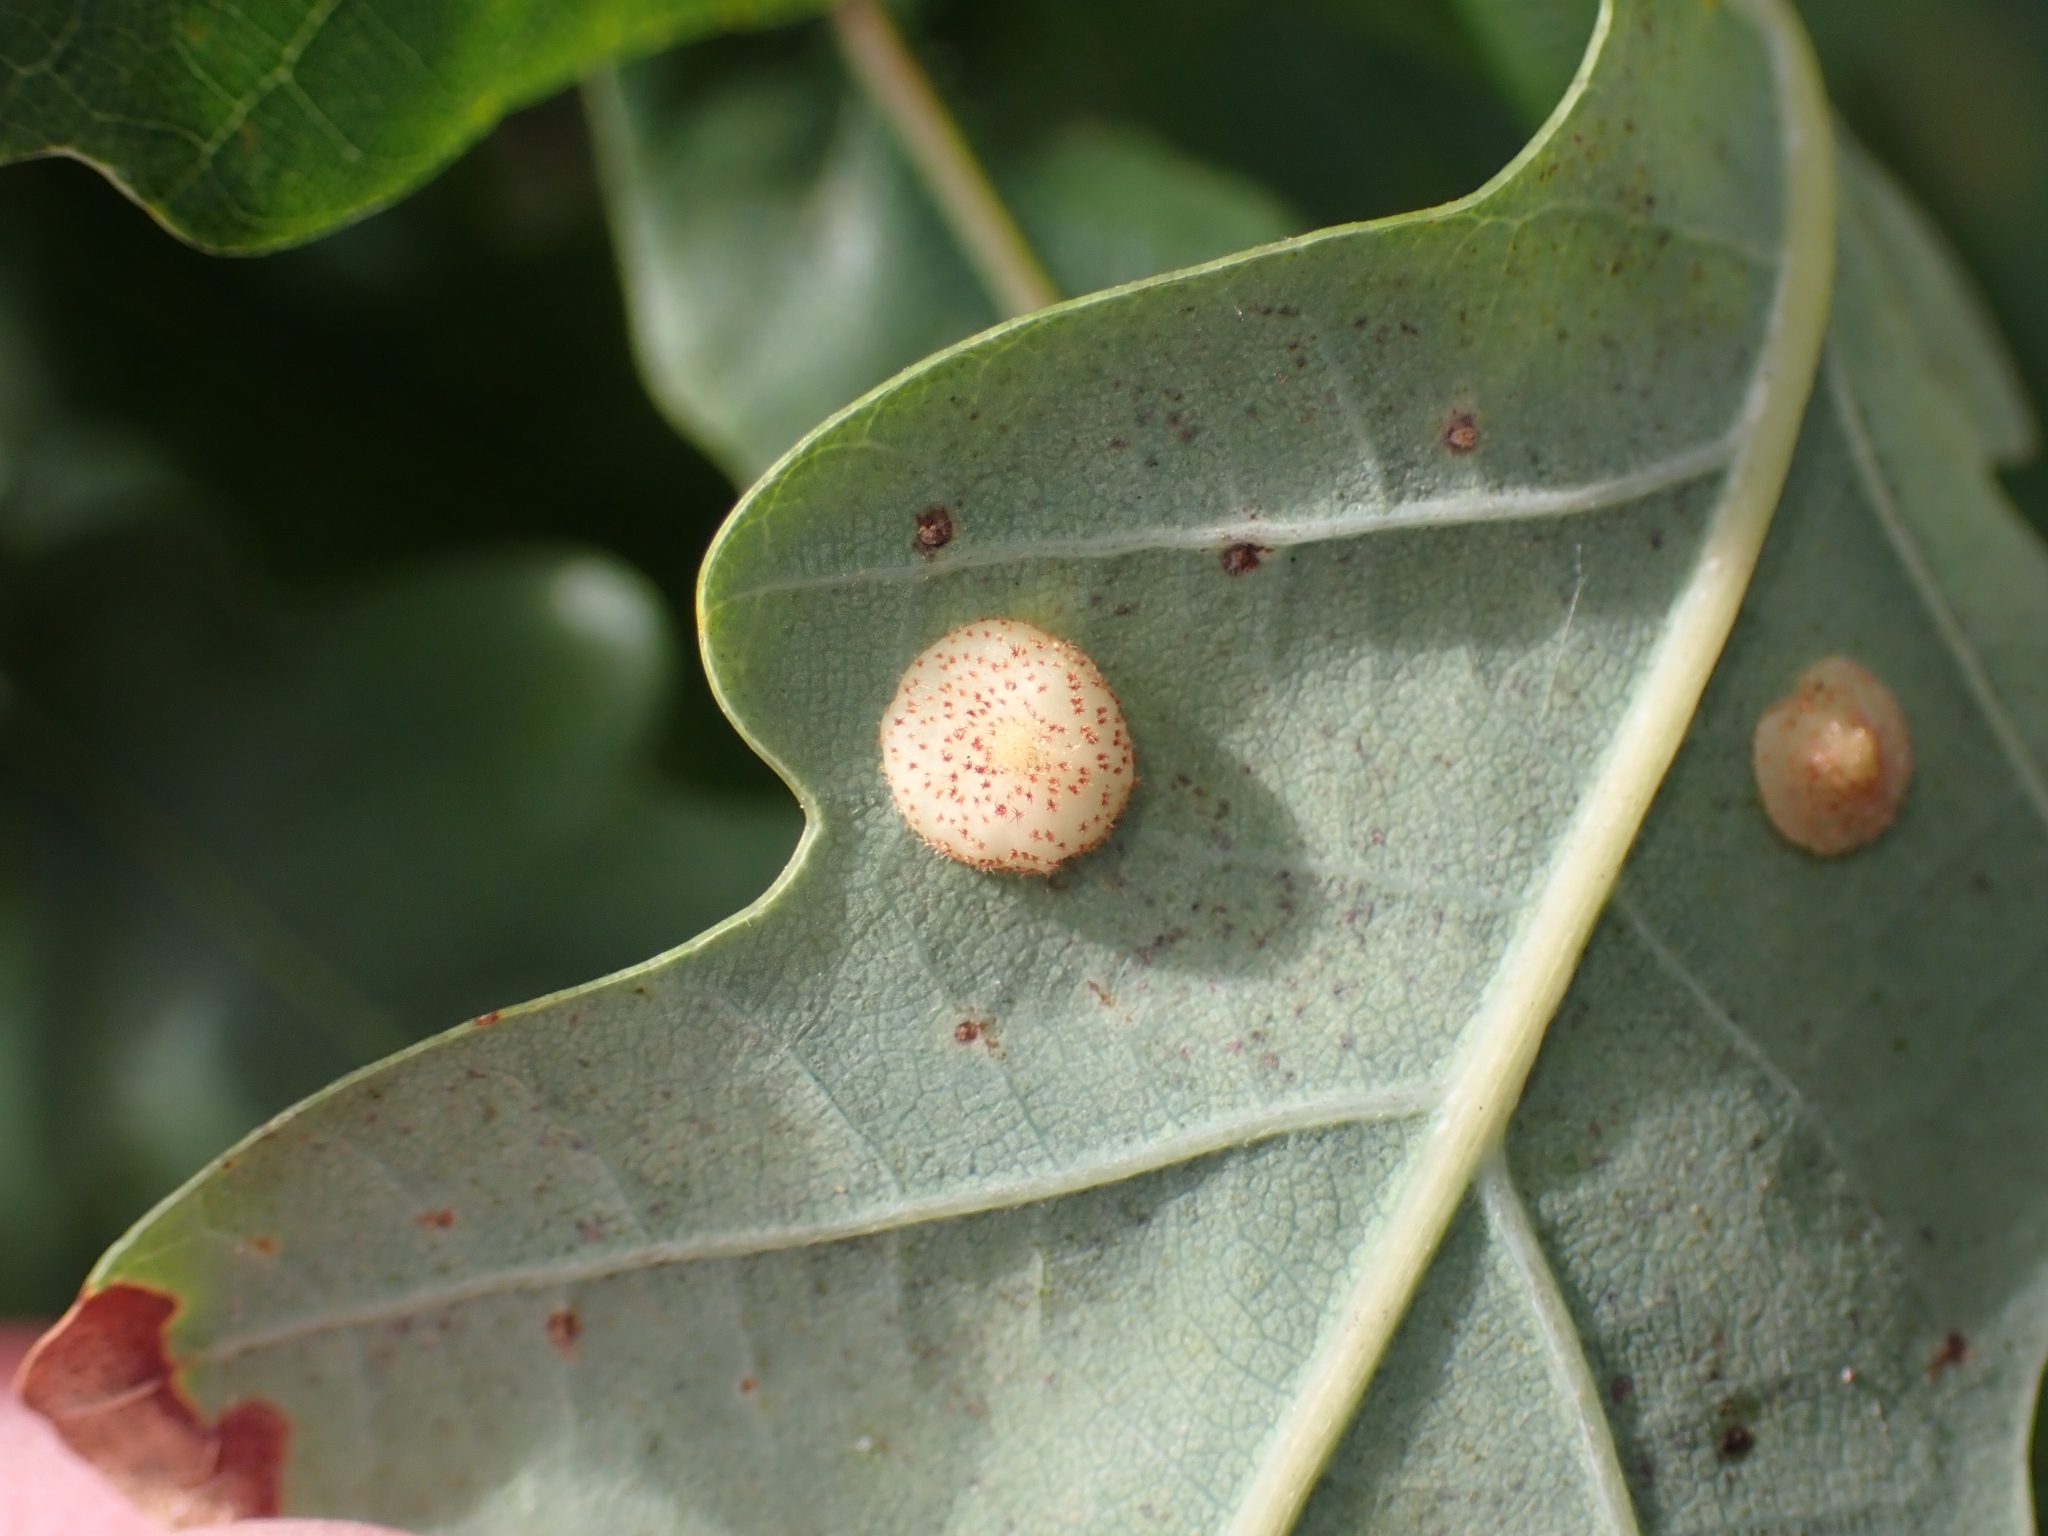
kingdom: Animalia
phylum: Arthropoda
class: Insecta
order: Diptera
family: Cecidomyiidae
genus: Parallelodiplosis
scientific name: Parallelodiplosis galliperda
